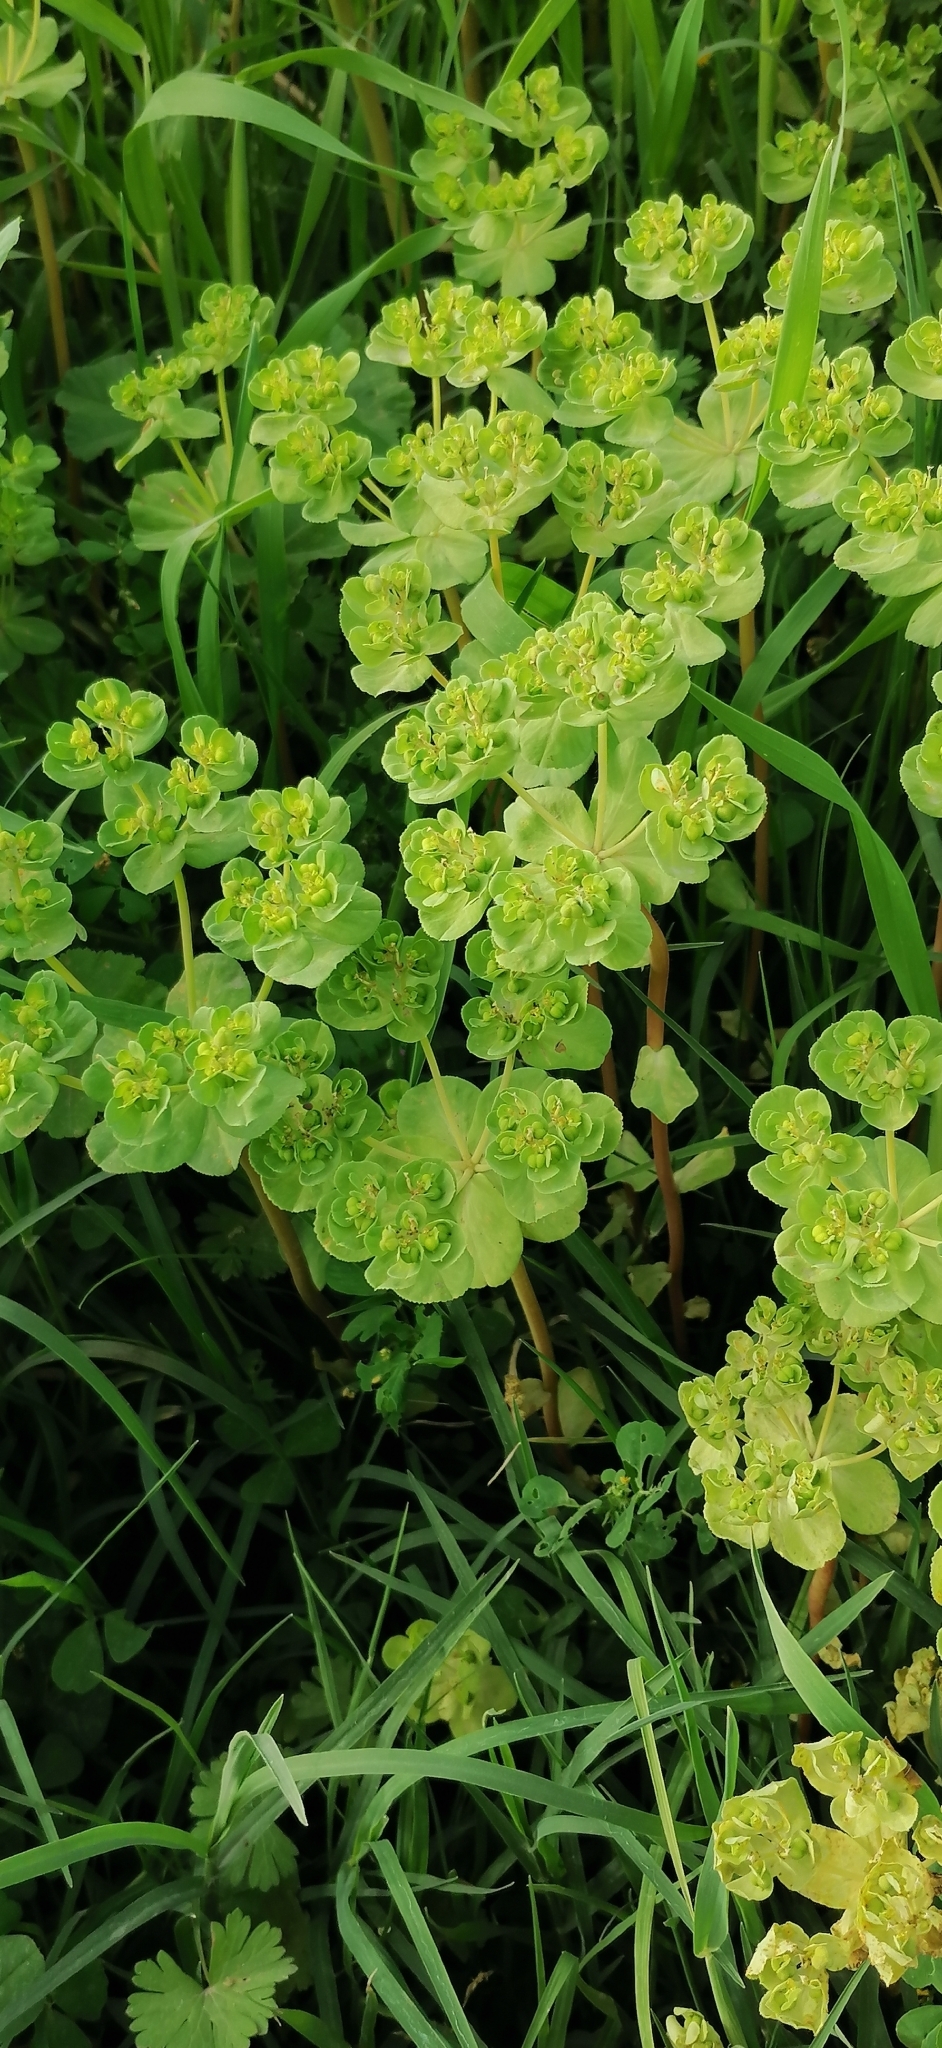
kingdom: Plantae
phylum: Tracheophyta
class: Magnoliopsida
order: Malpighiales
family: Euphorbiaceae
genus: Euphorbia
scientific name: Euphorbia helioscopia
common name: Sun spurge
